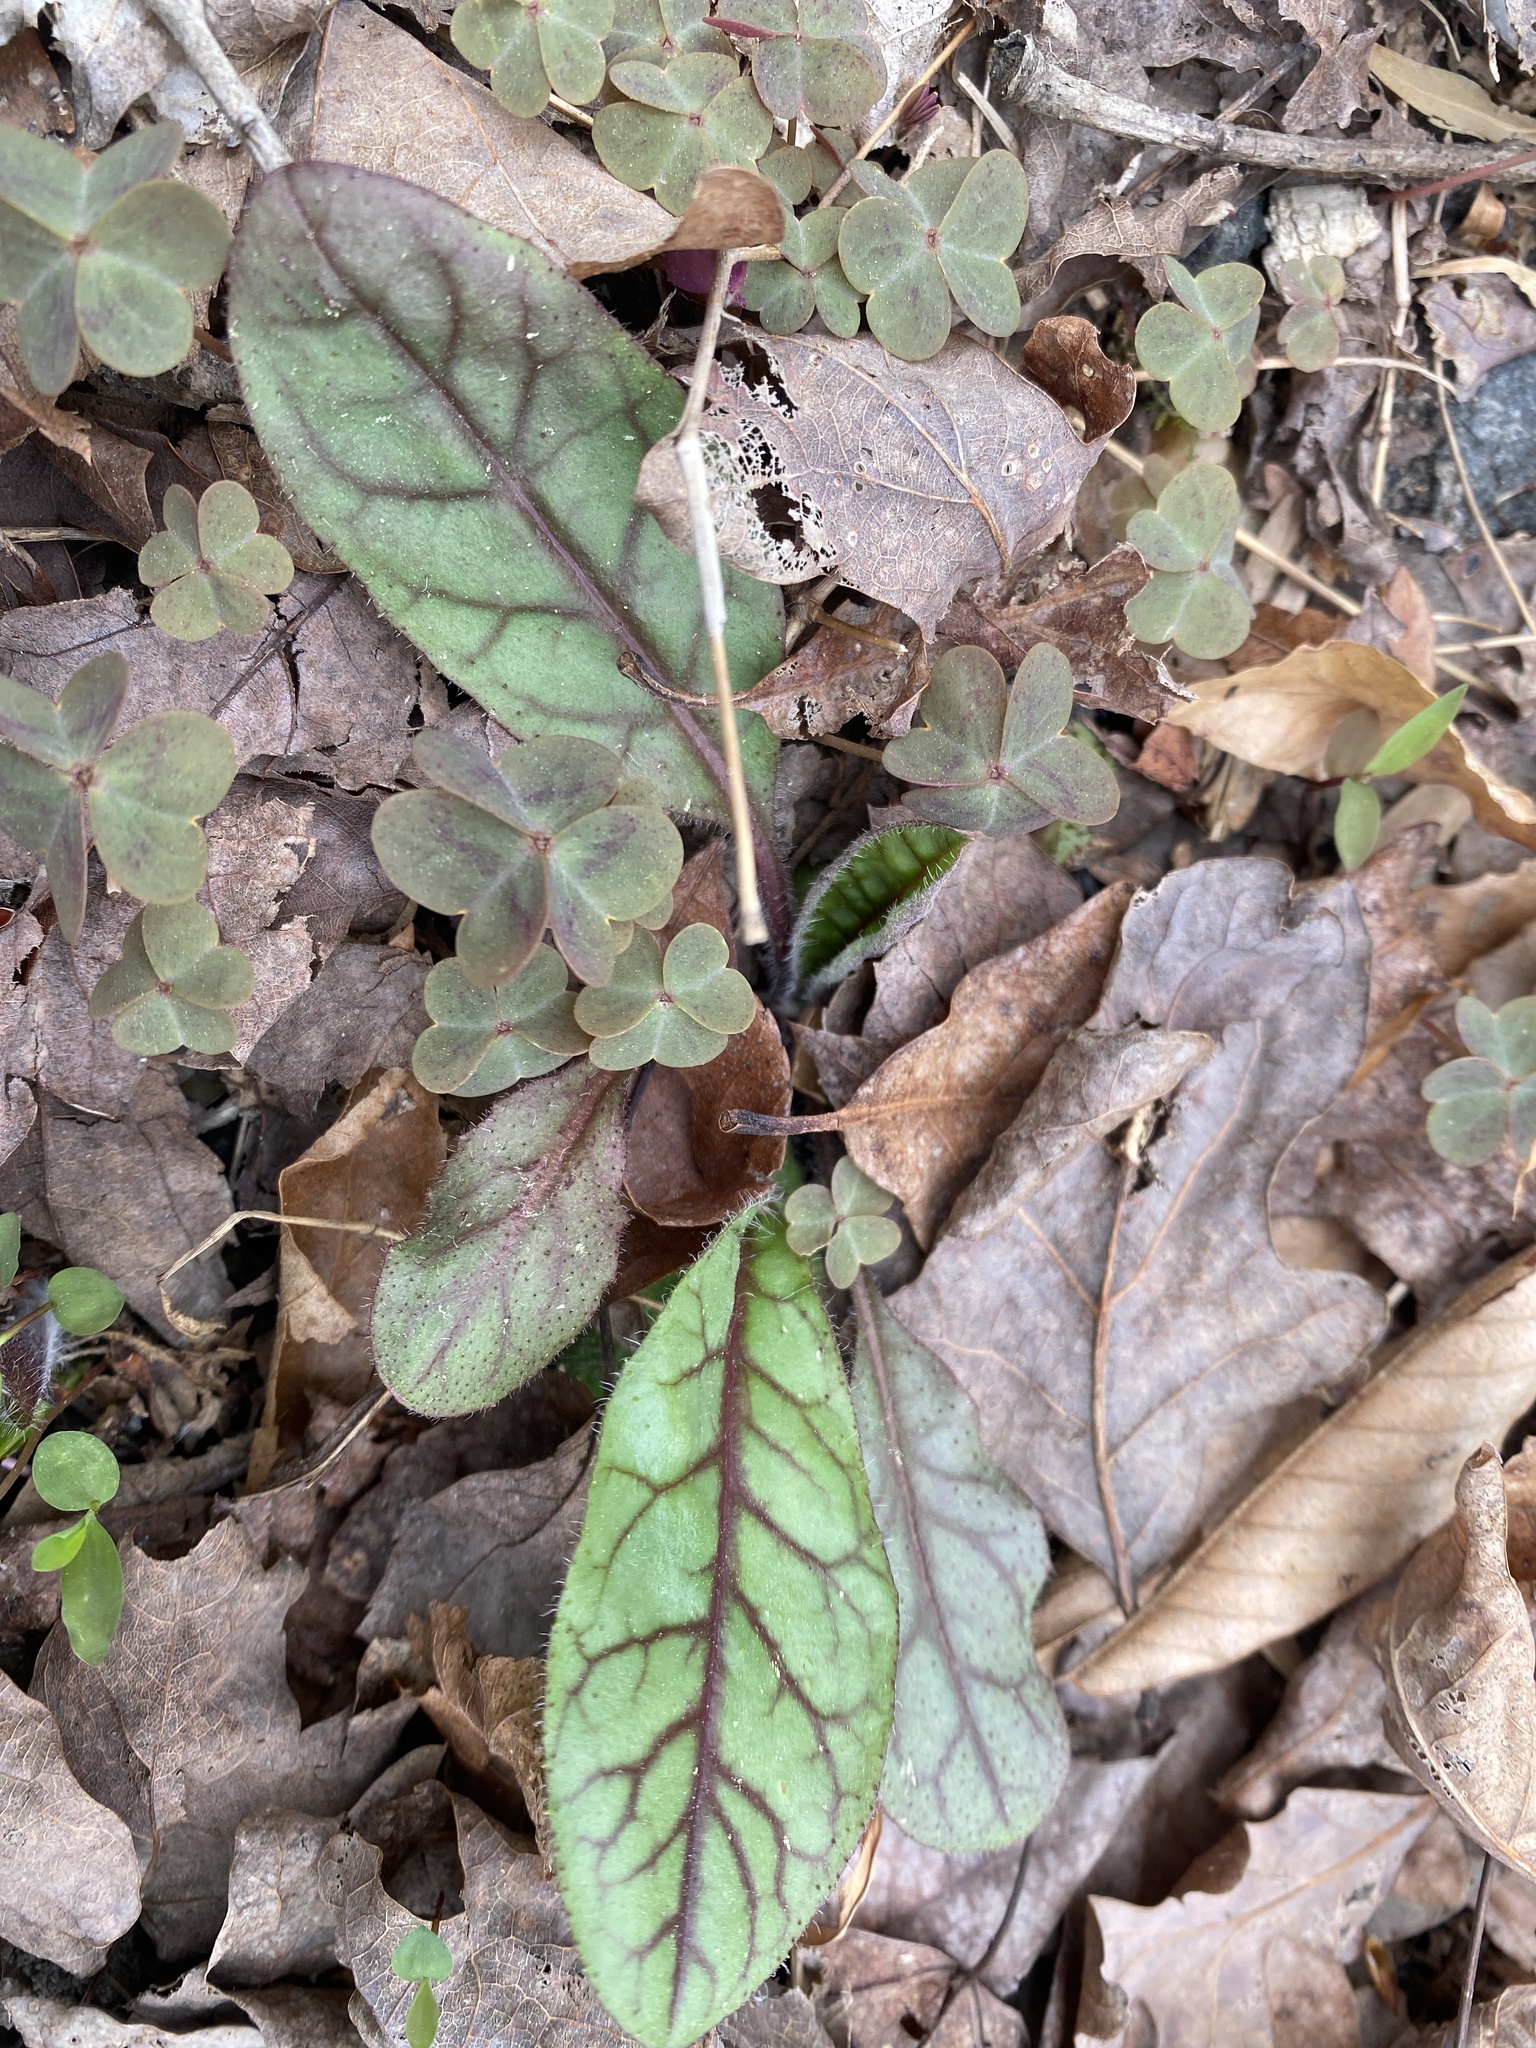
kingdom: Plantae
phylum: Tracheophyta
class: Magnoliopsida
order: Asterales
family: Asteraceae
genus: Hieracium
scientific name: Hieracium venosum
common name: Rattlesnake hawkweed
